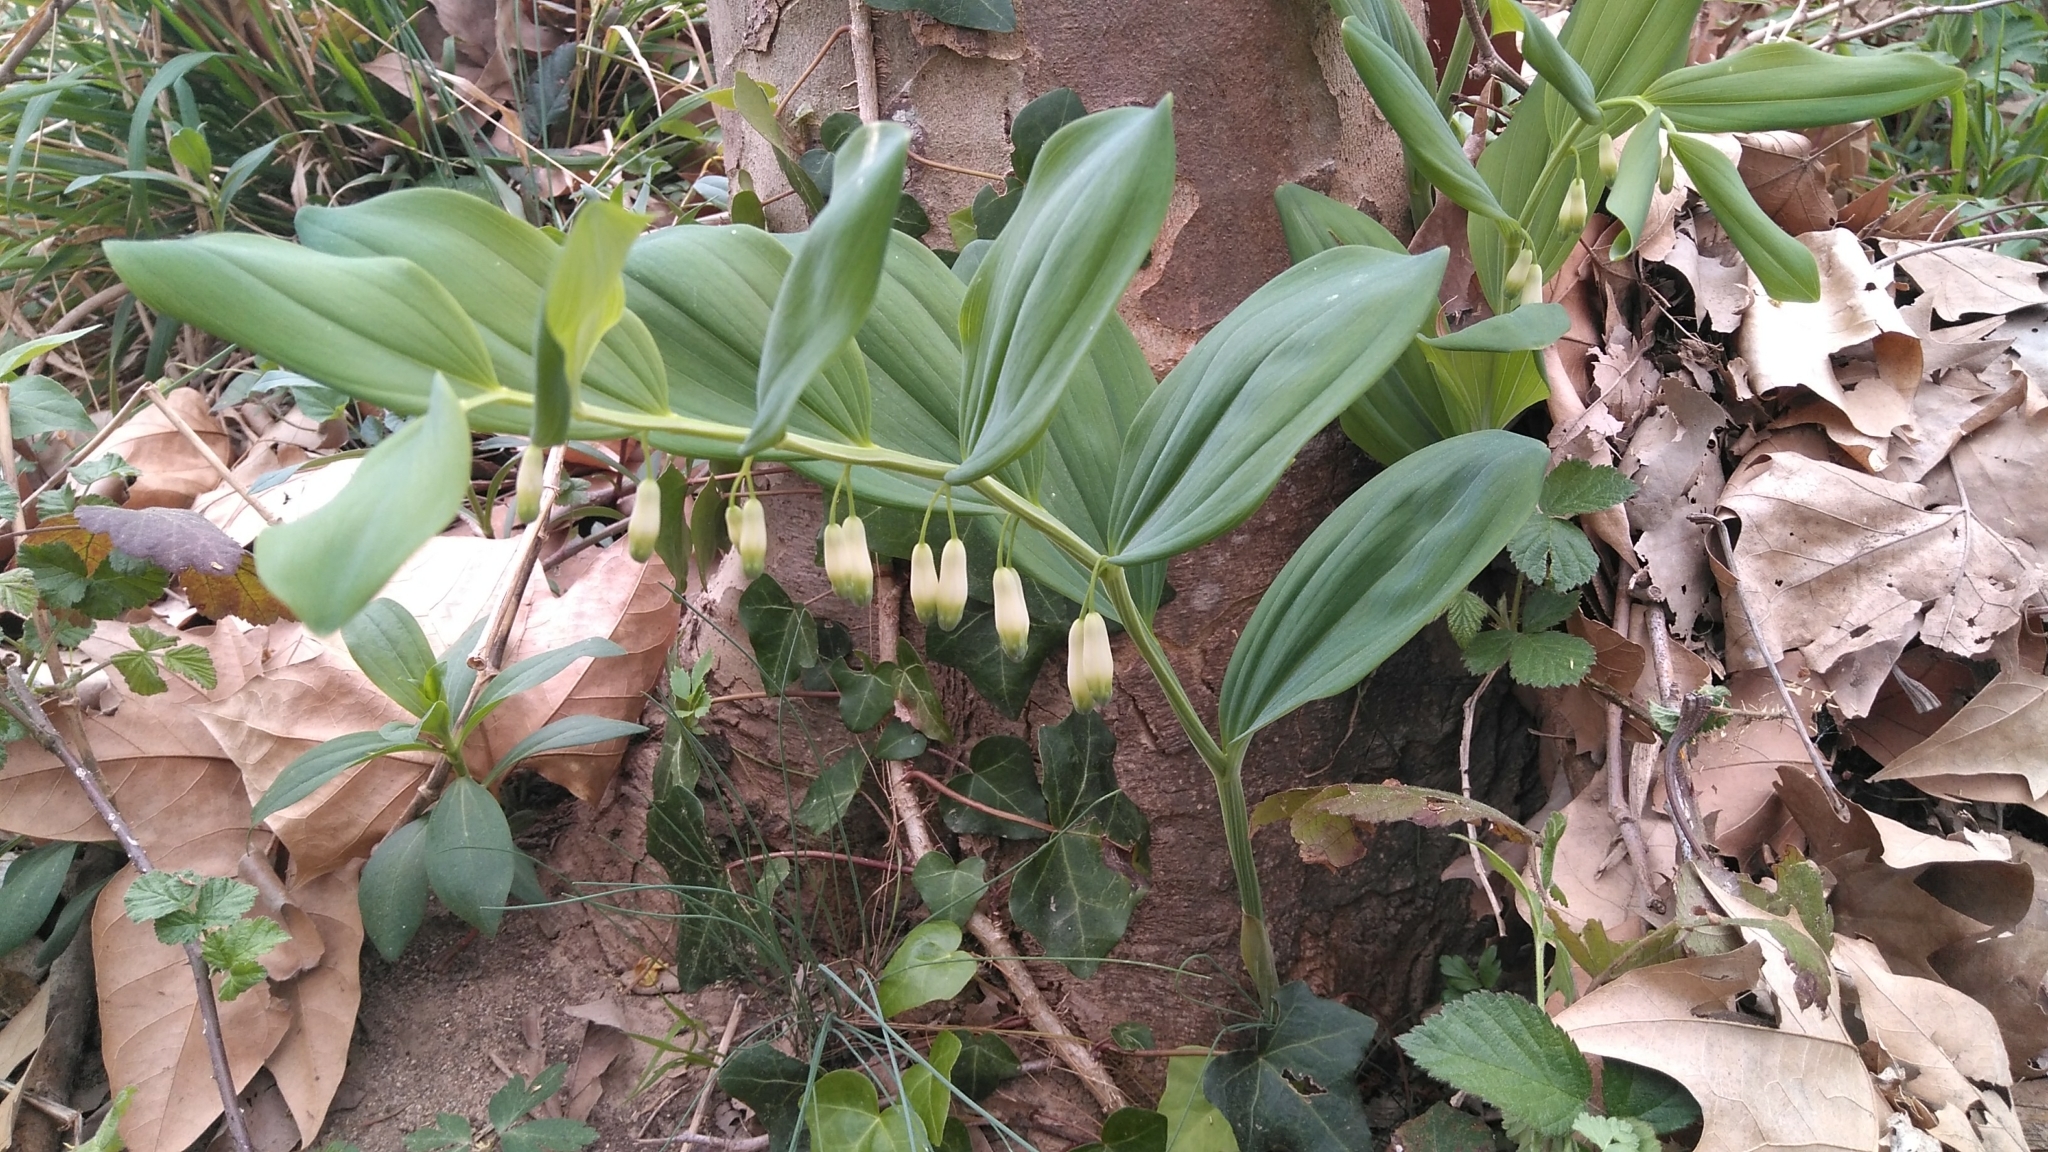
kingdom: Plantae
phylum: Tracheophyta
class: Liliopsida
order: Asparagales
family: Asparagaceae
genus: Polygonatum
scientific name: Polygonatum odoratum
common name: Angular solomon's-seal
